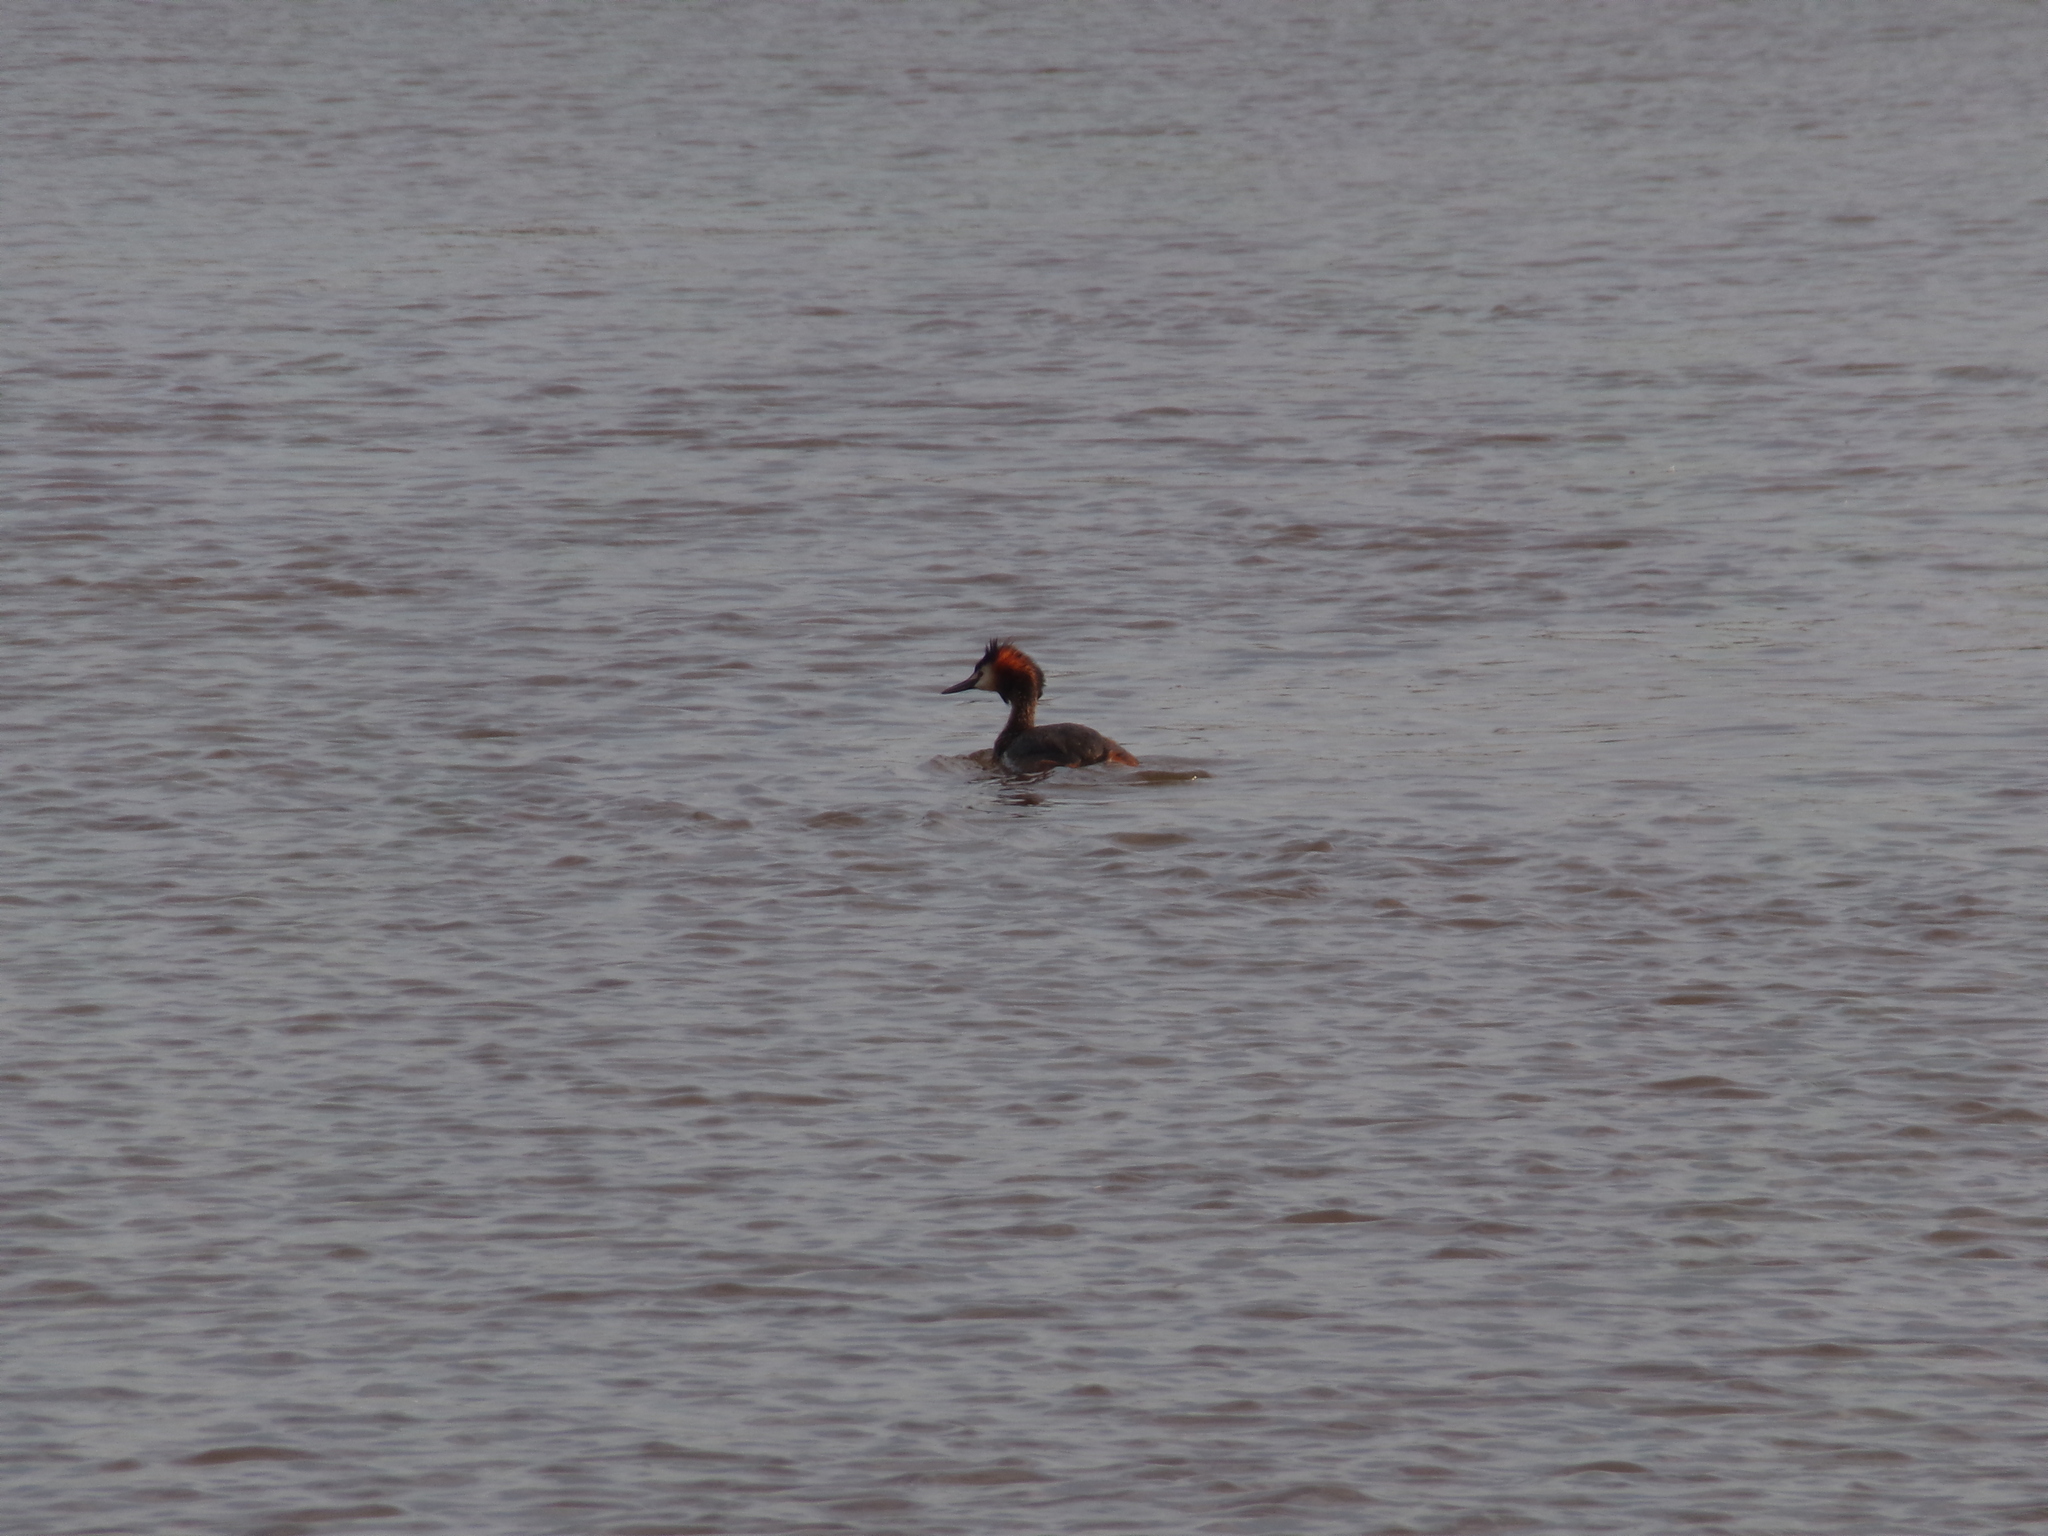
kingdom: Animalia
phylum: Chordata
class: Aves
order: Podicipediformes
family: Podicipedidae
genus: Podiceps
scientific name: Podiceps cristatus
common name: Great crested grebe
